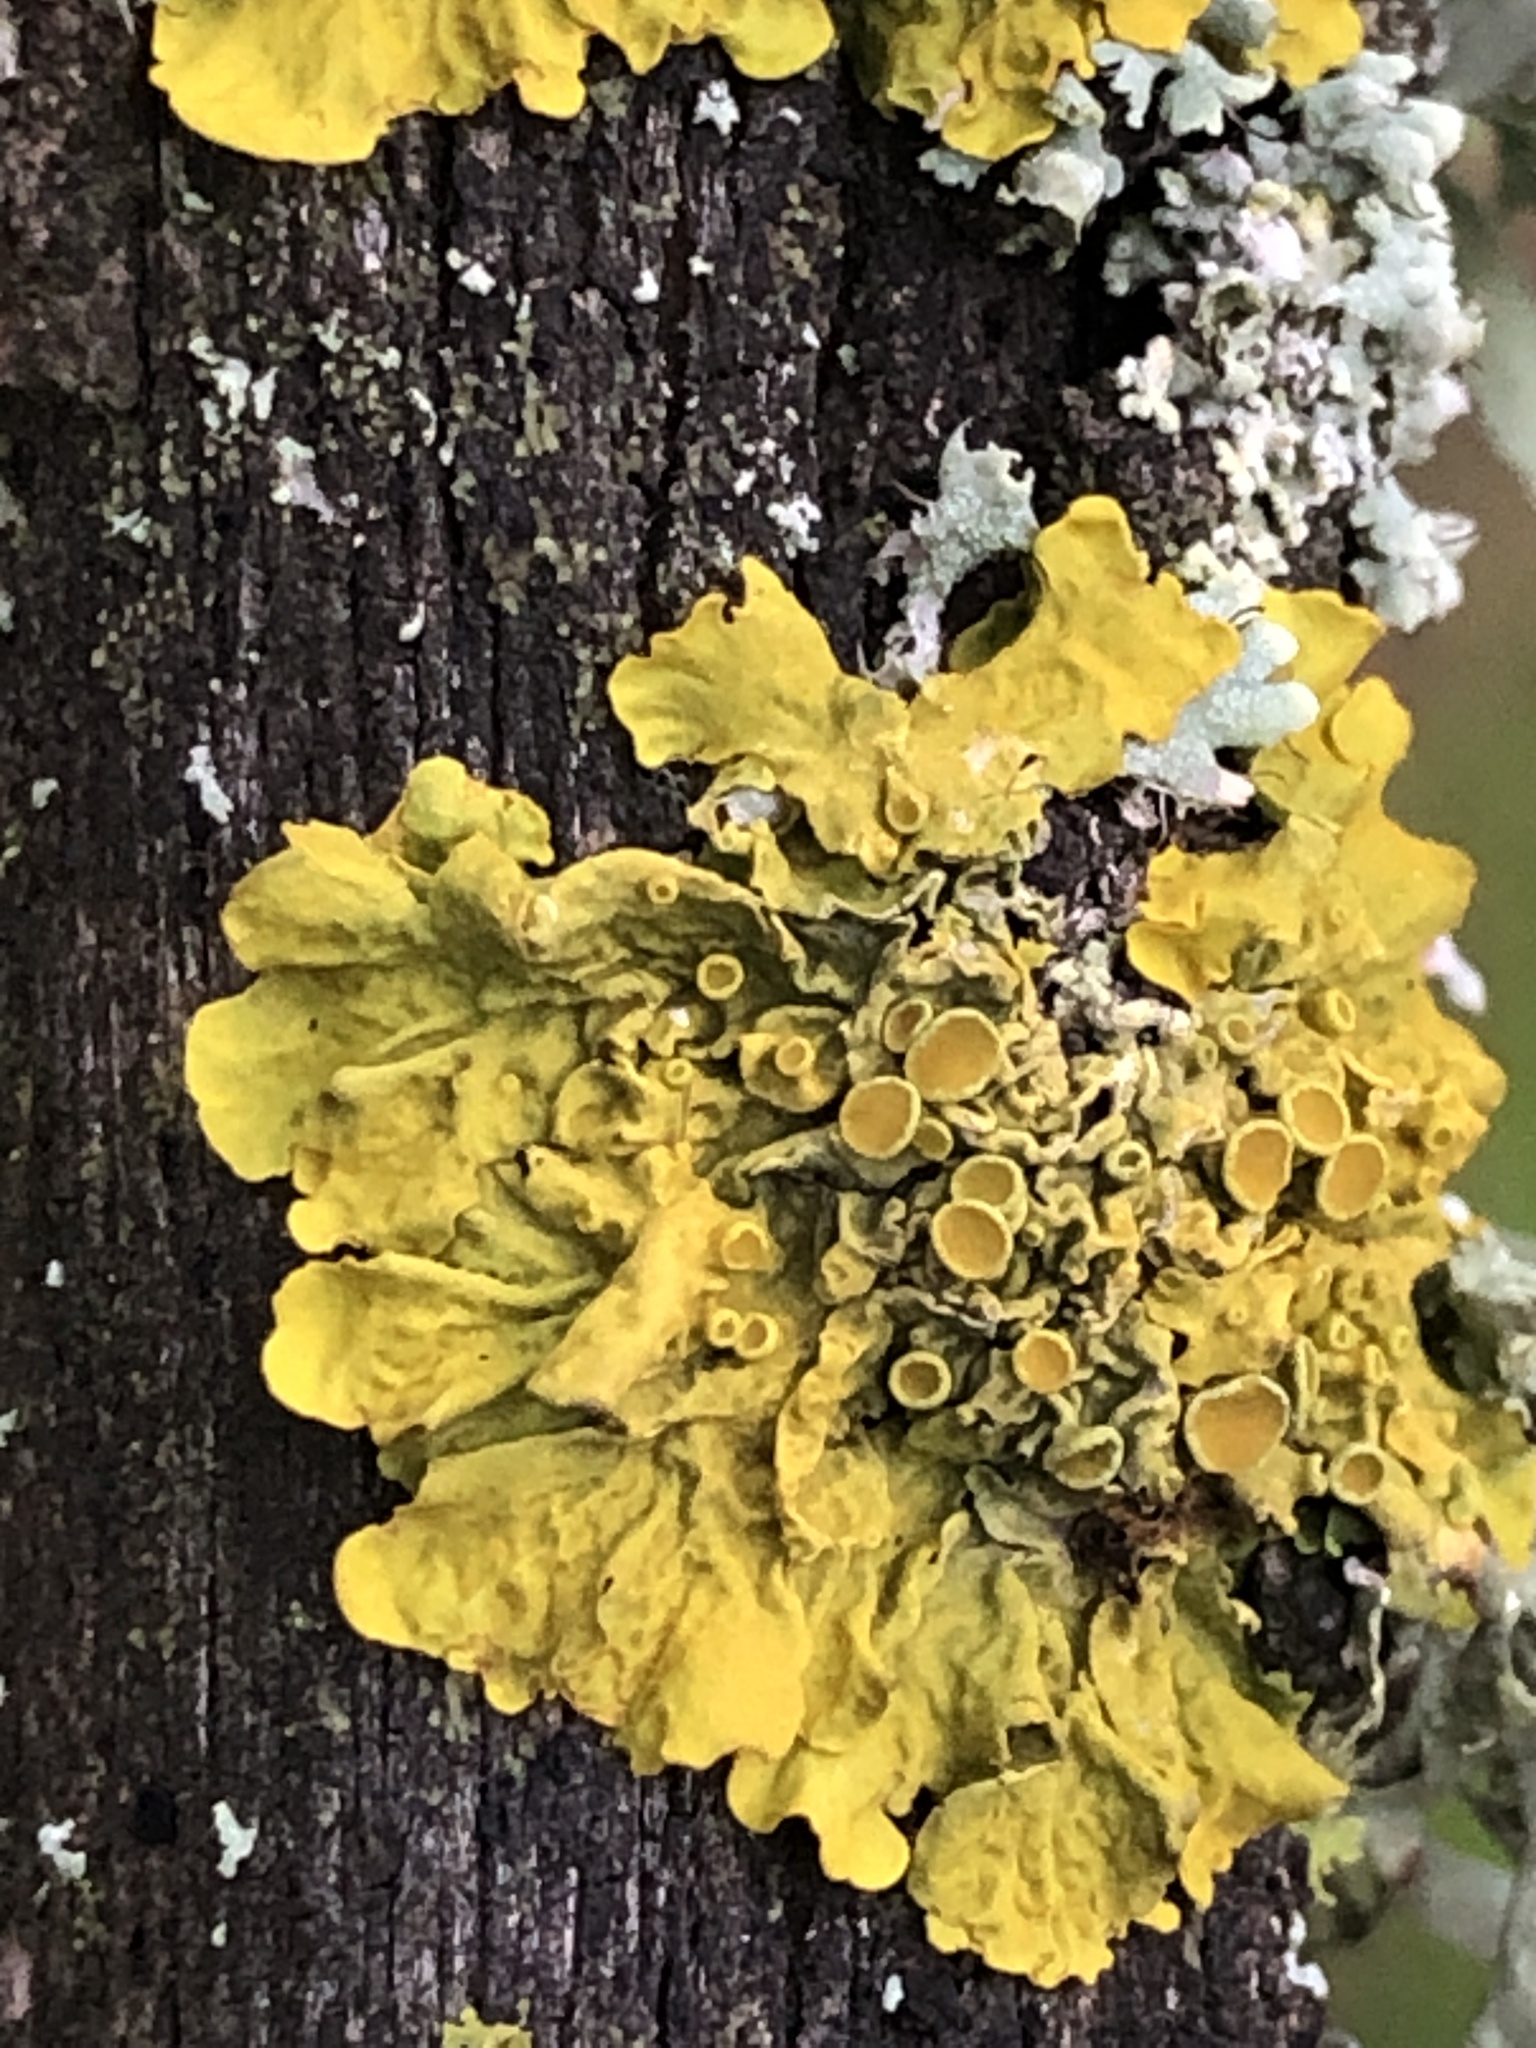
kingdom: Fungi
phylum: Ascomycota
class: Lecanoromycetes
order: Teloschistales
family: Teloschistaceae
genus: Xanthoria
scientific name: Xanthoria parietina
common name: Common orange lichen
